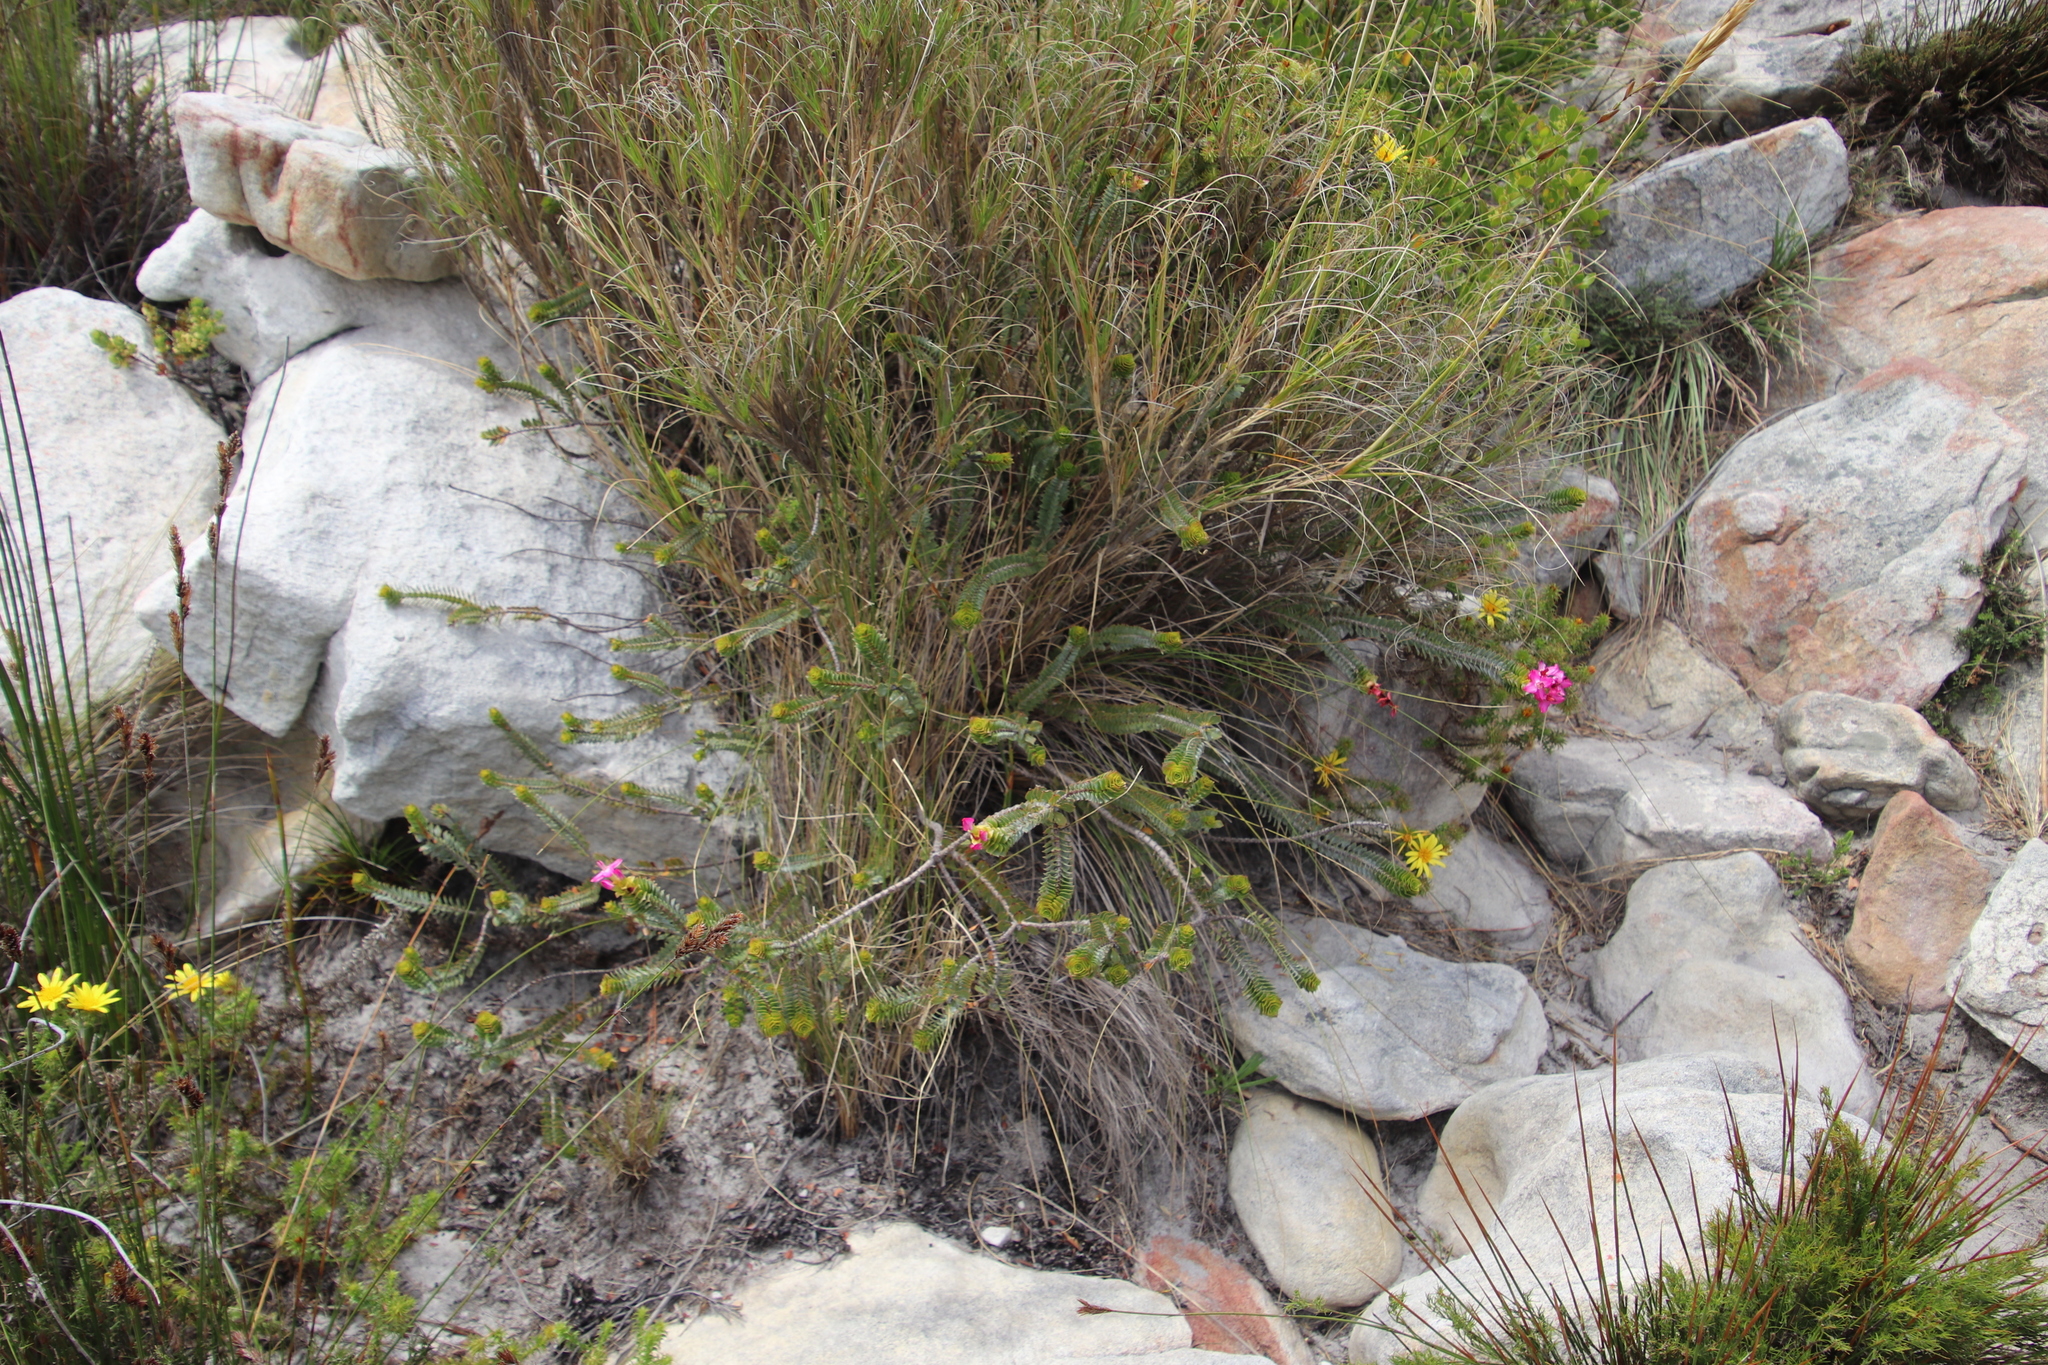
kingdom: Plantae
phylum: Tracheophyta
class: Magnoliopsida
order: Myrtales
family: Penaeaceae
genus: Saltera
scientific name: Saltera sarcocolla
